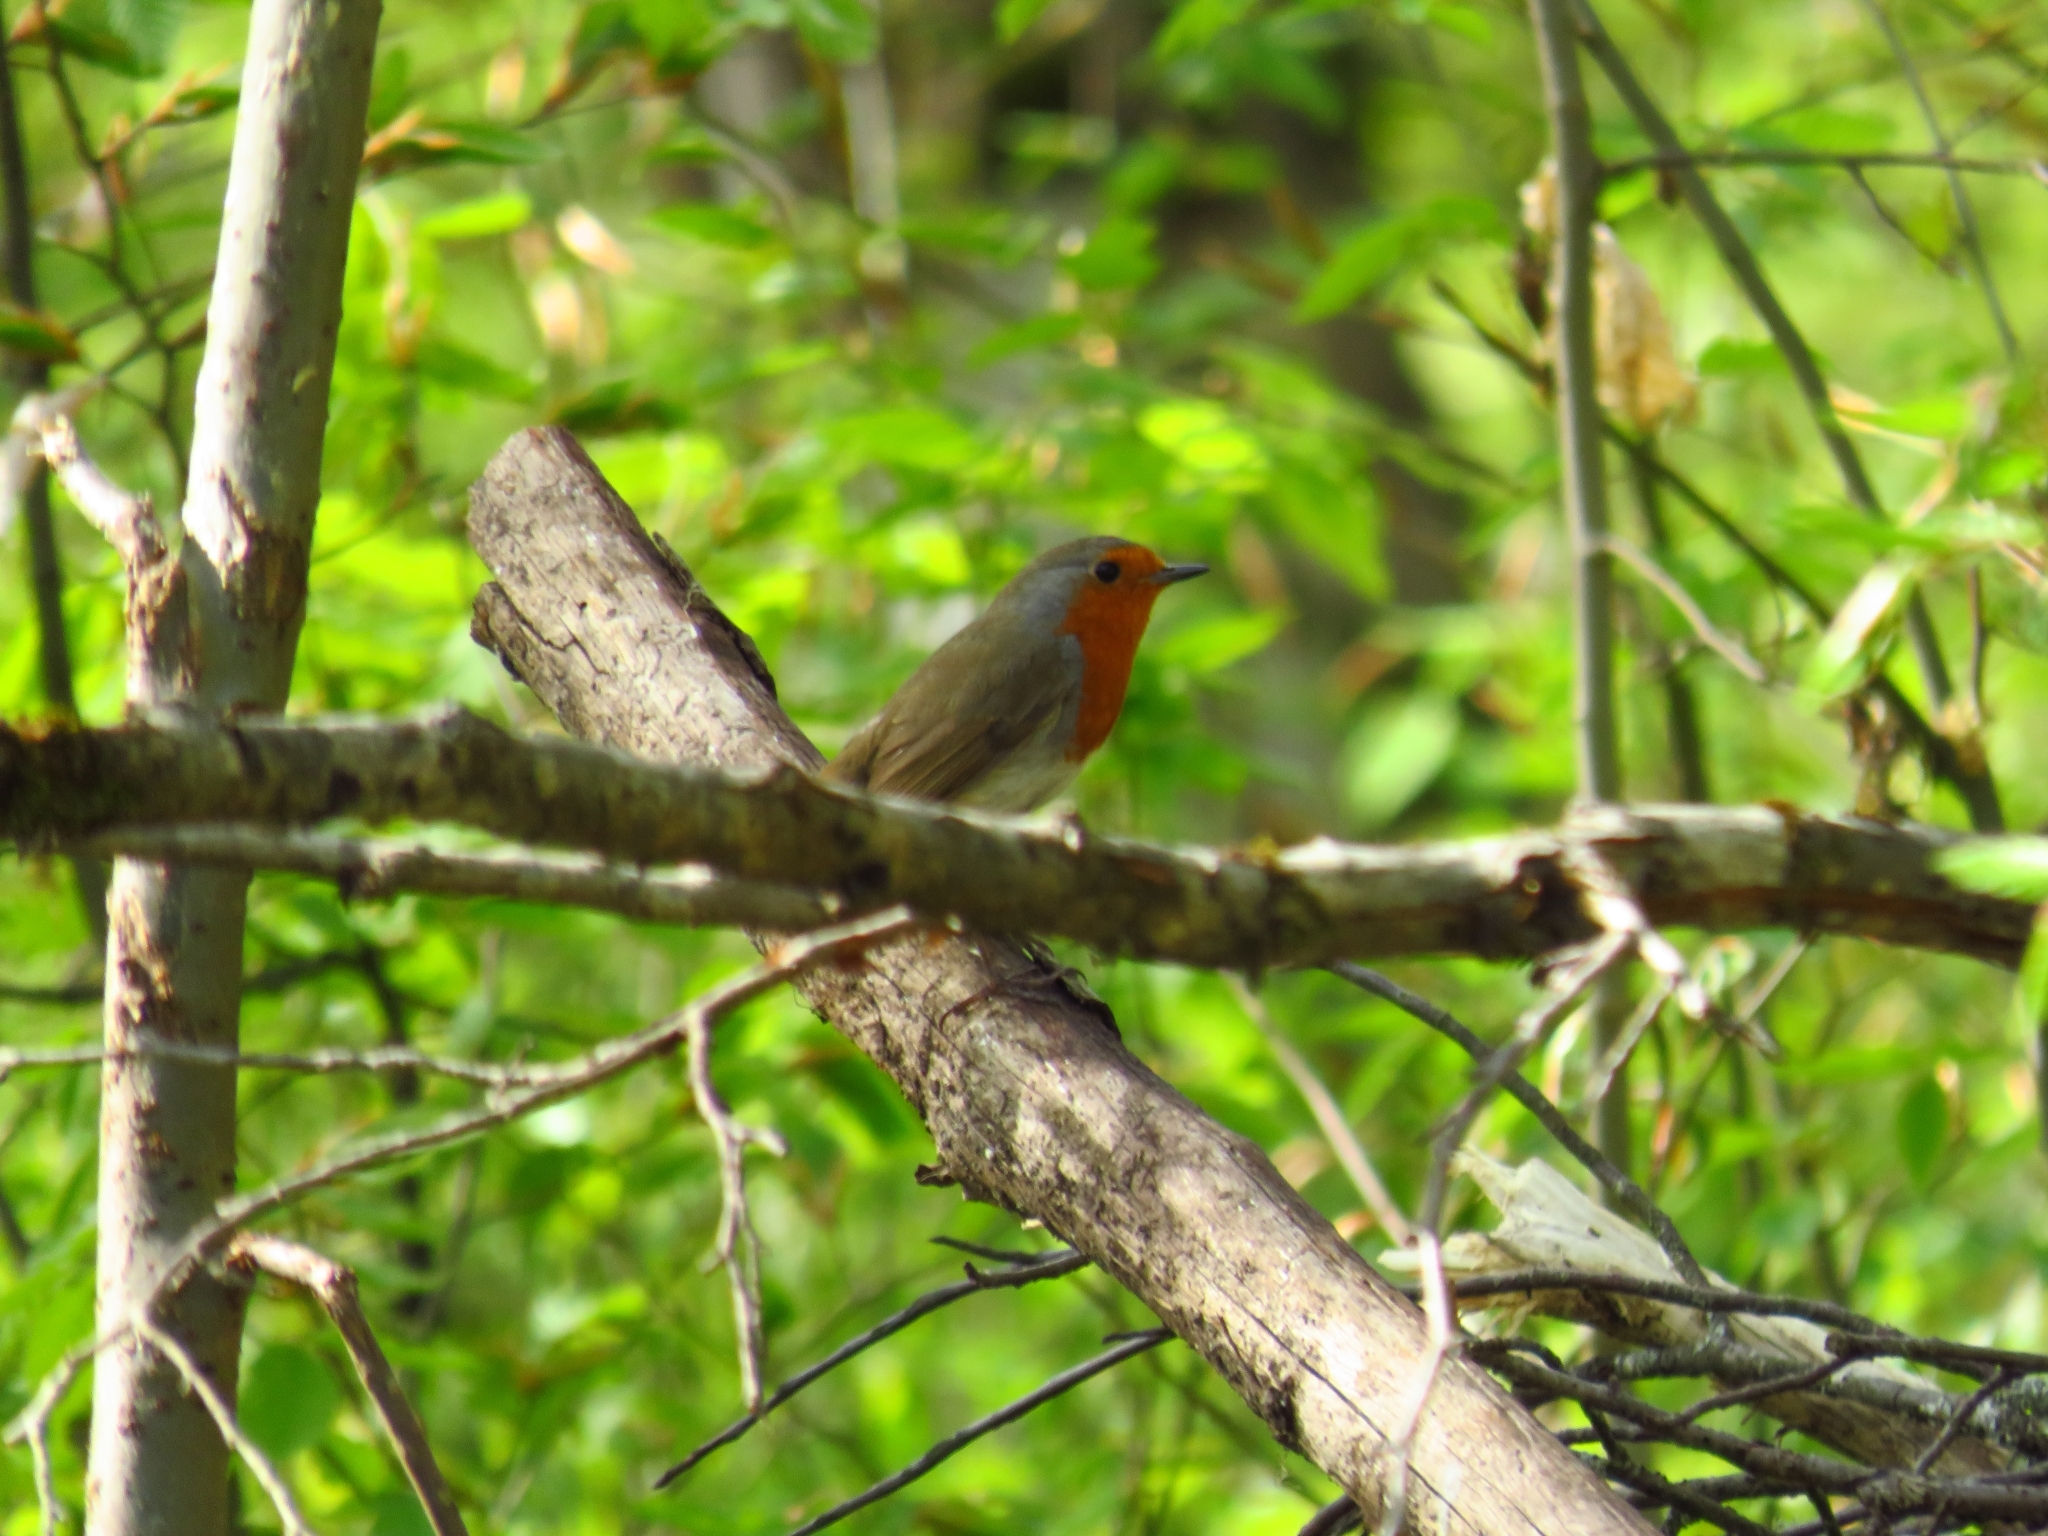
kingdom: Animalia
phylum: Chordata
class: Aves
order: Passeriformes
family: Muscicapidae
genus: Erithacus
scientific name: Erithacus rubecula
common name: European robin
